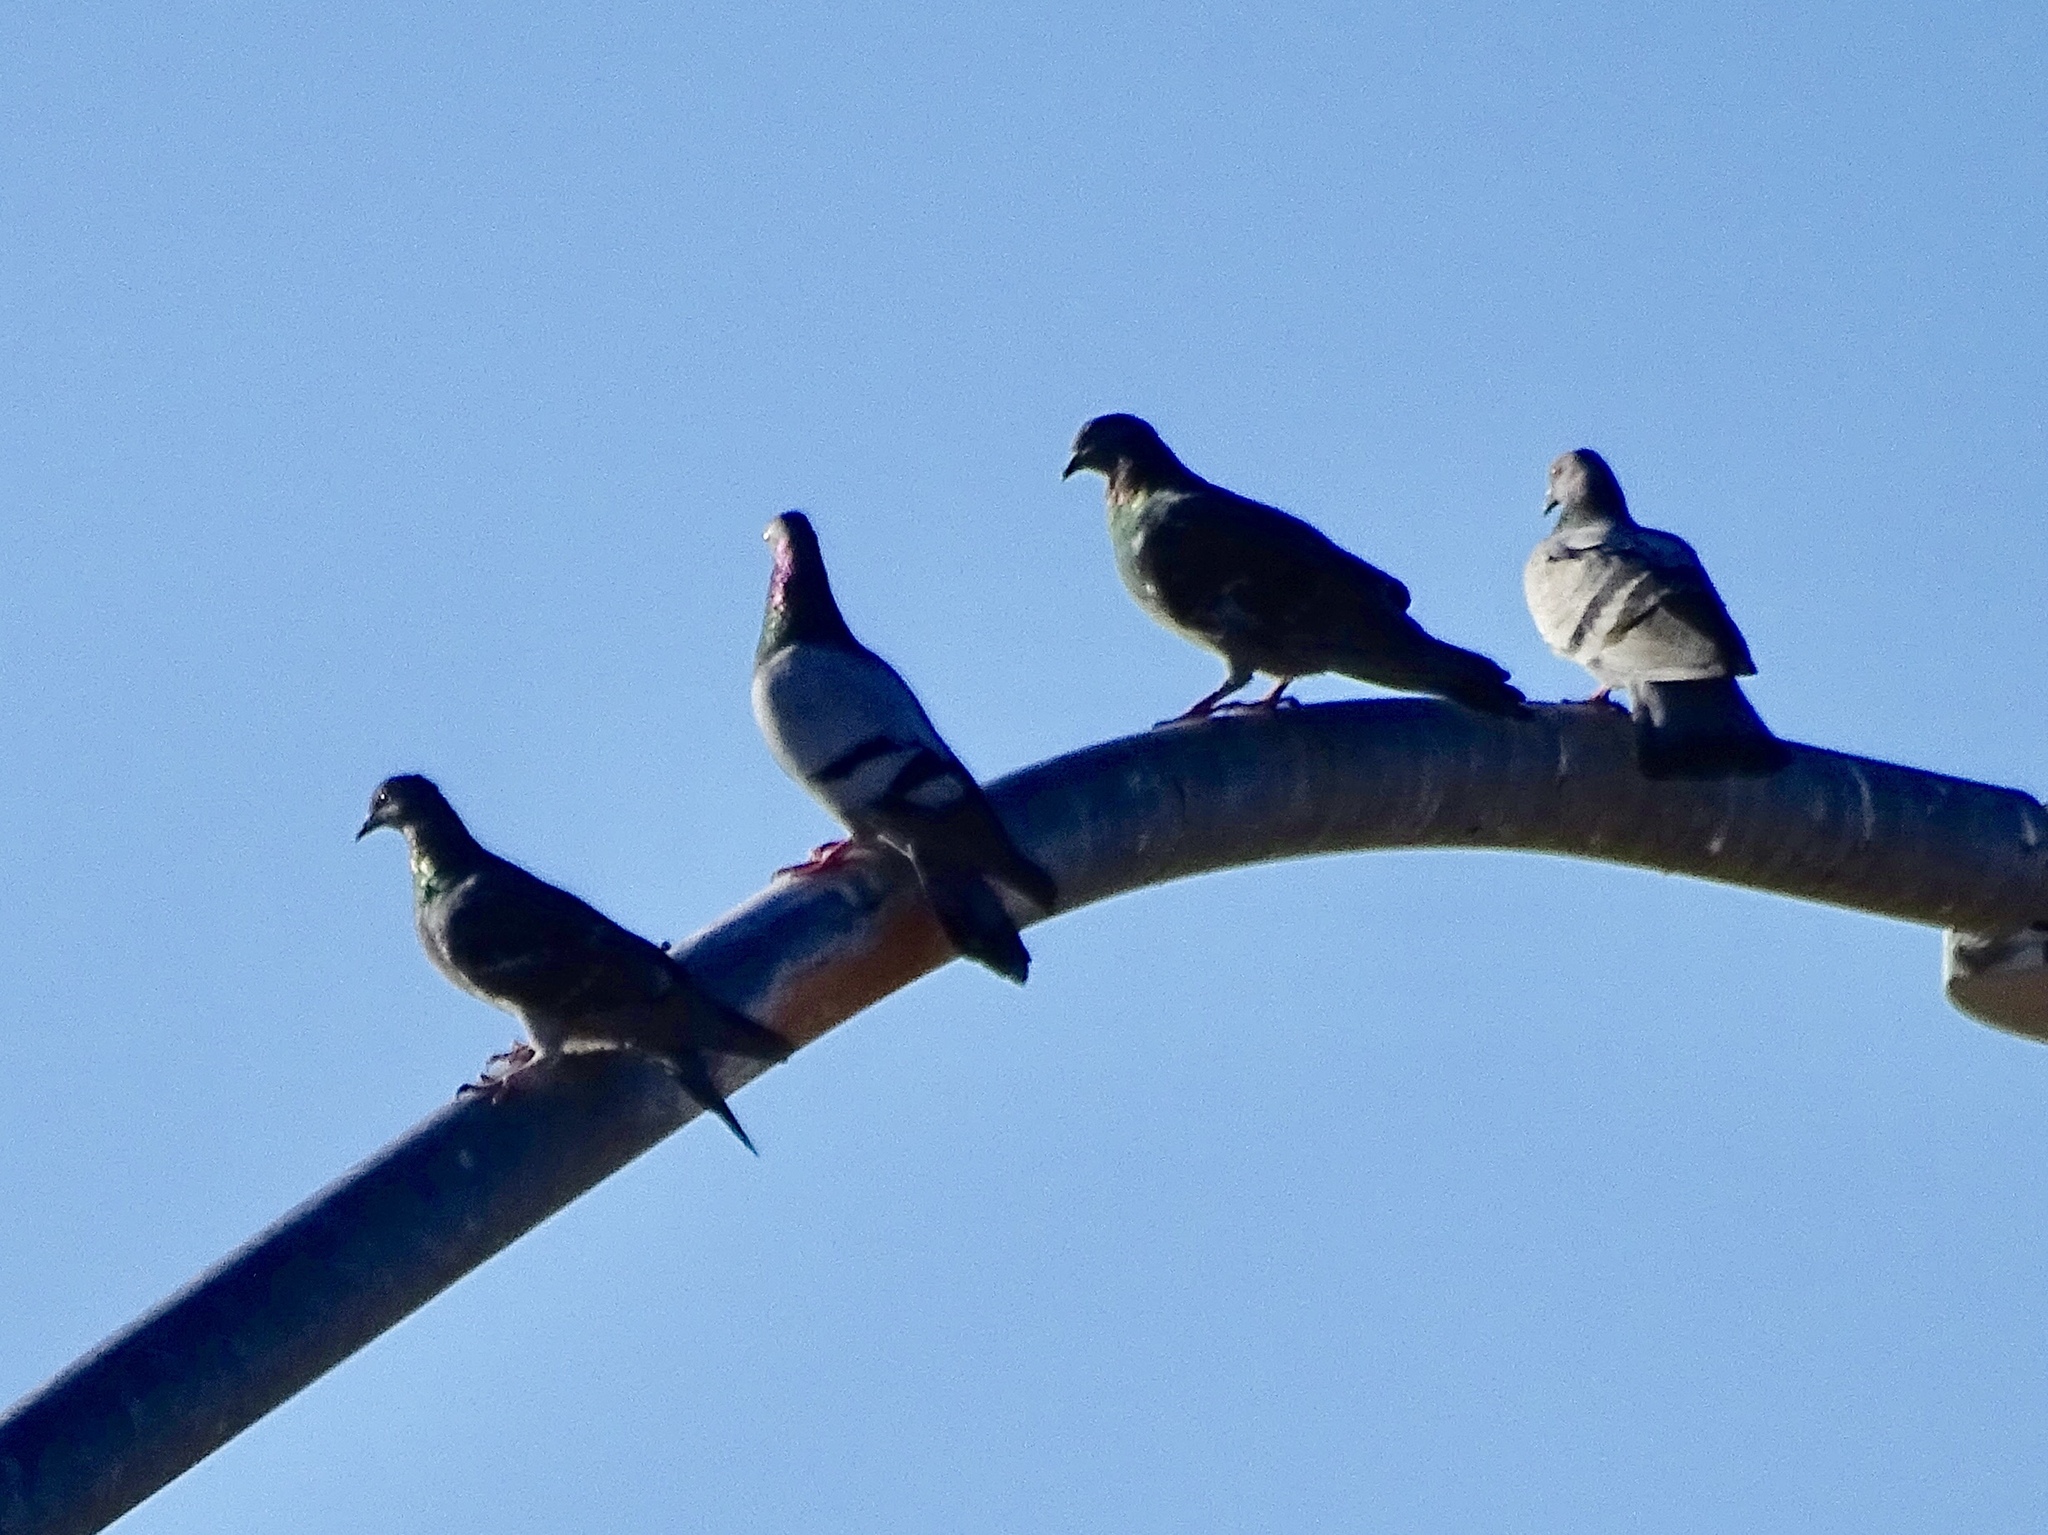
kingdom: Animalia
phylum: Chordata
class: Aves
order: Columbiformes
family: Columbidae
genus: Columba
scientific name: Columba livia
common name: Rock pigeon
